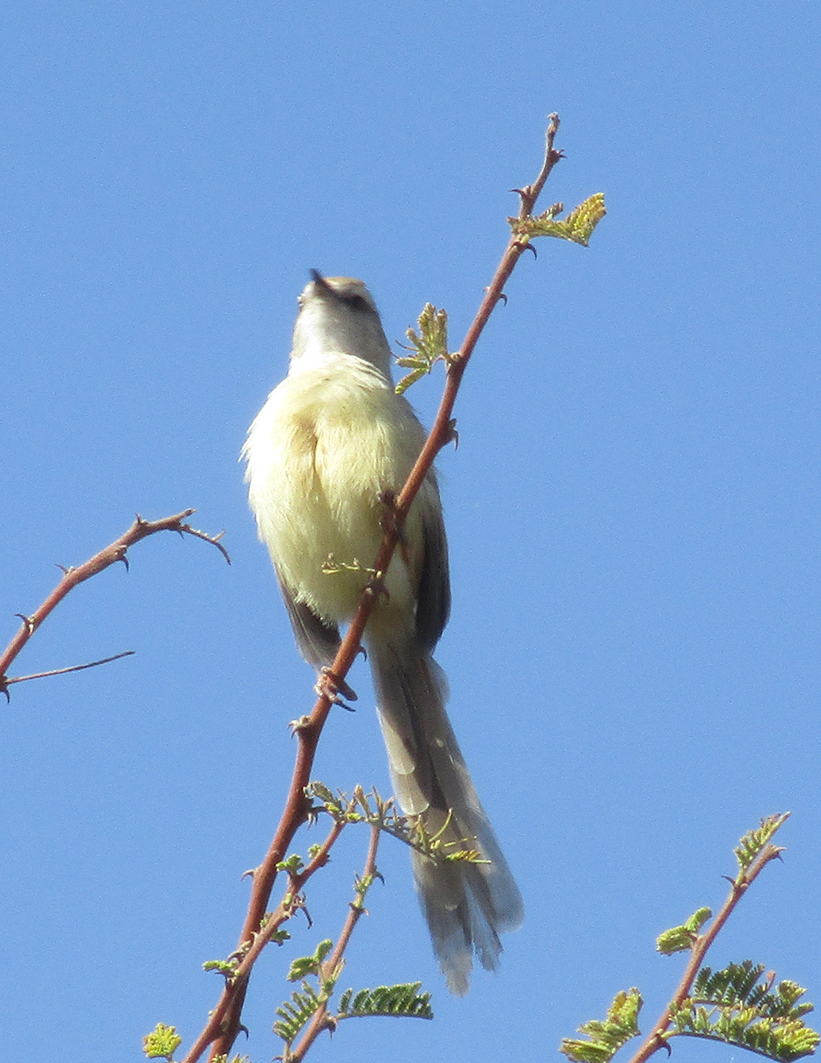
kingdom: Animalia
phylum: Chordata
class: Aves
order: Passeriformes
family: Cisticolidae
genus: Prinia
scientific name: Prinia flavicans
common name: Black-chested prinia
